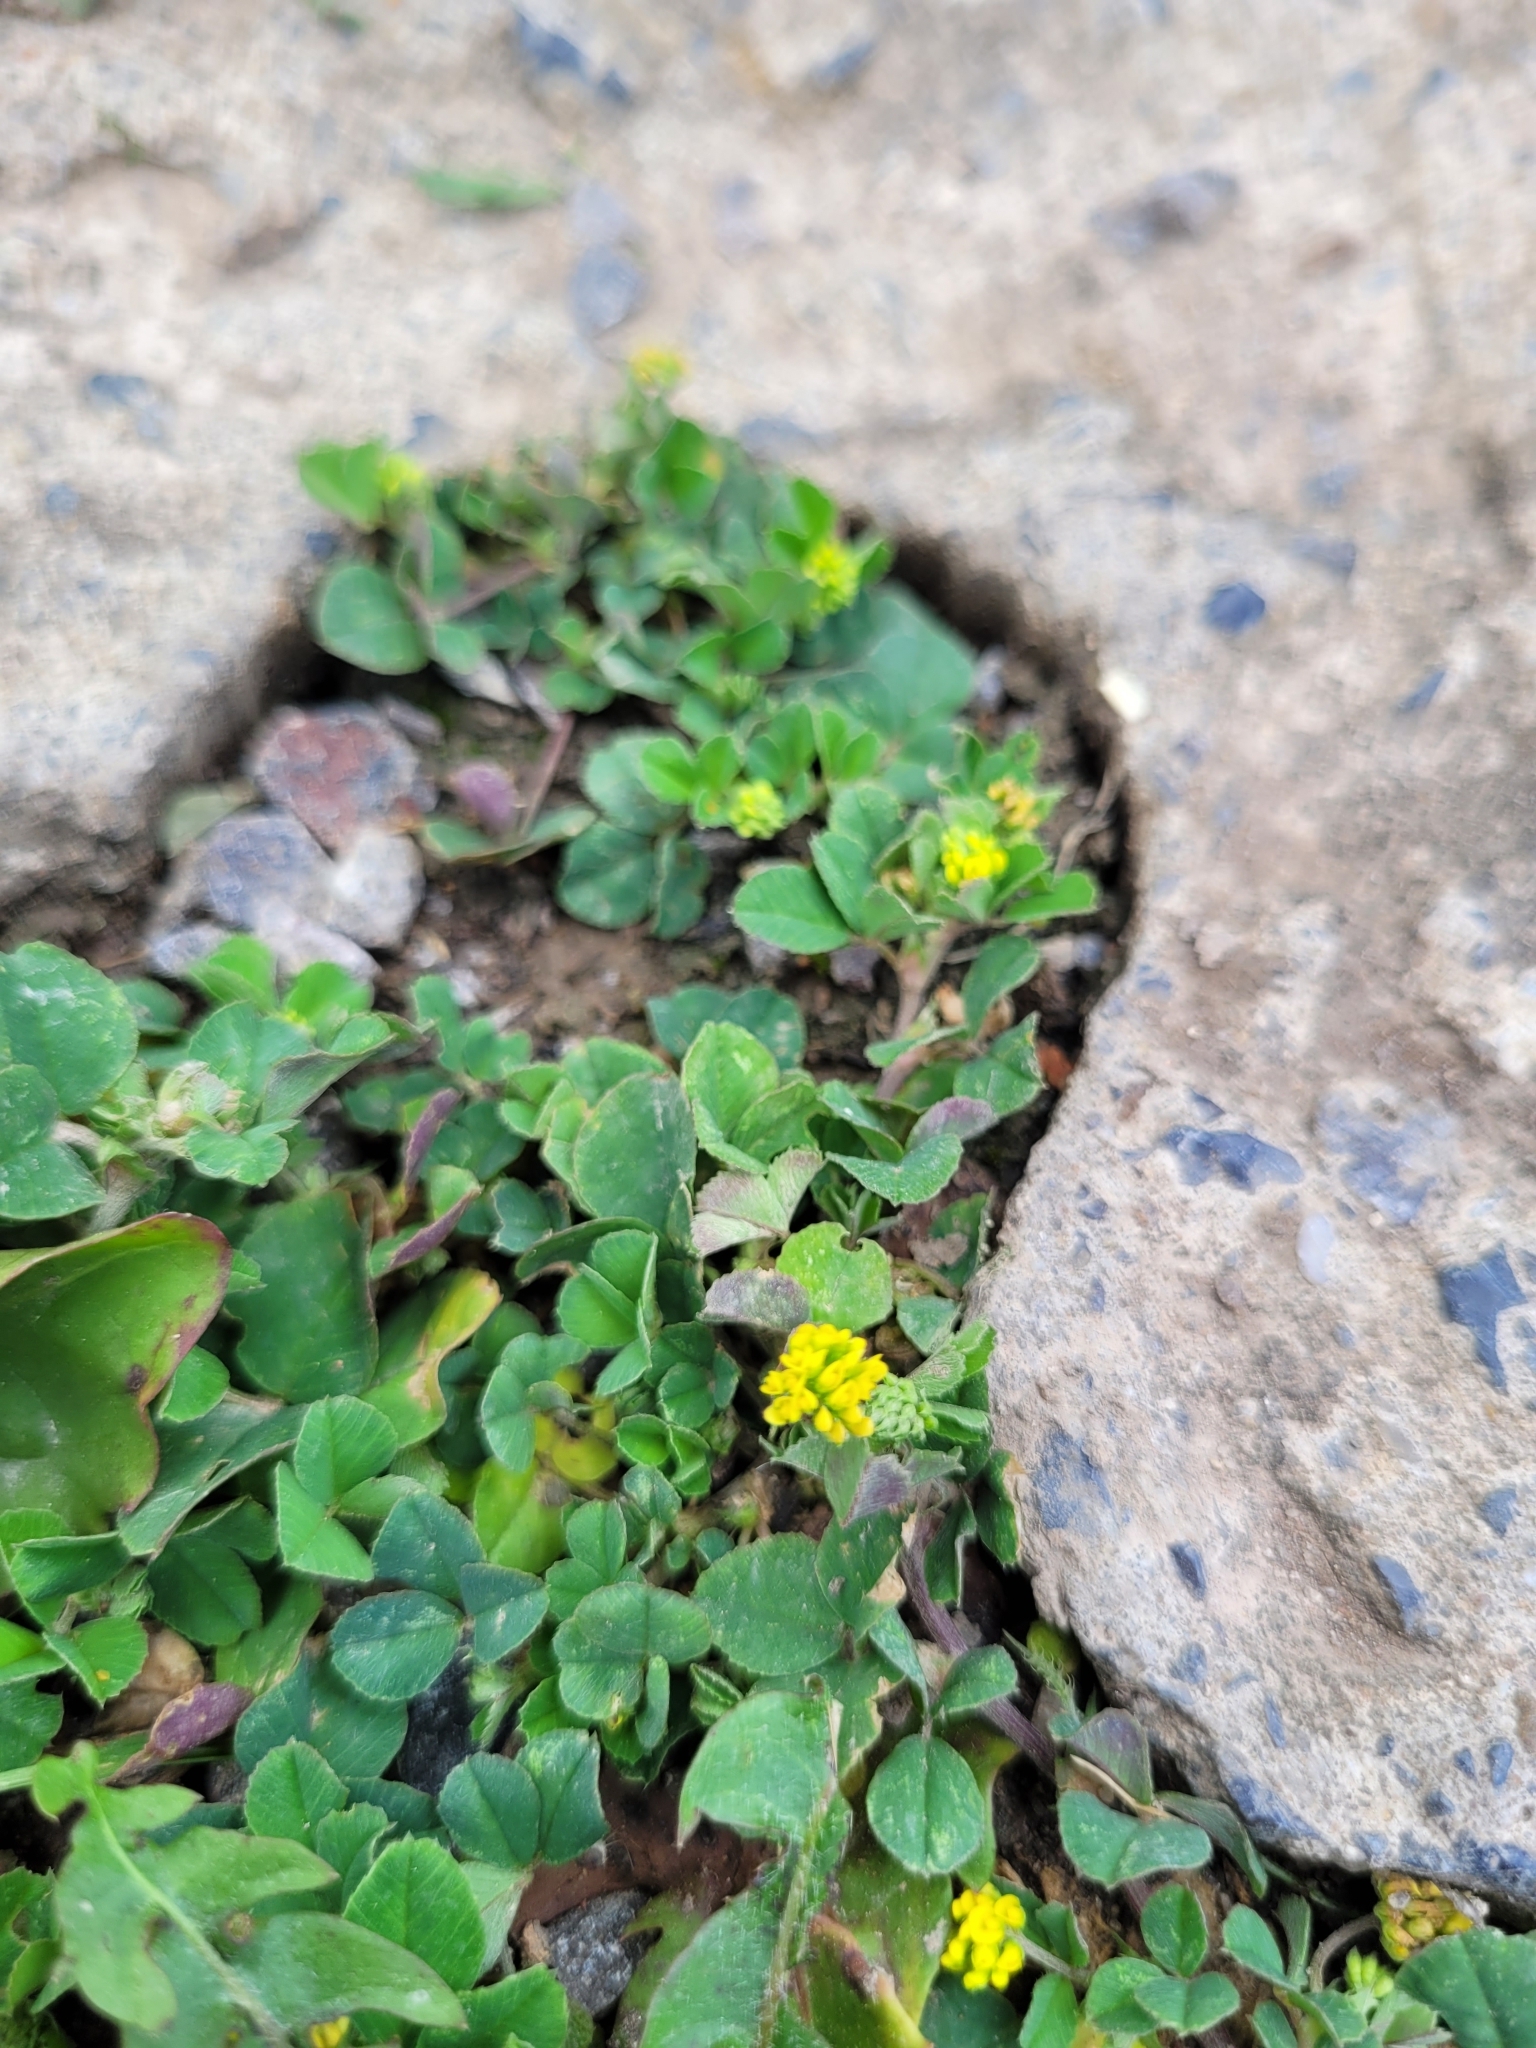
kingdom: Plantae
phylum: Tracheophyta
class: Magnoliopsida
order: Fabales
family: Fabaceae
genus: Medicago
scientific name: Medicago lupulina
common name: Black medick
